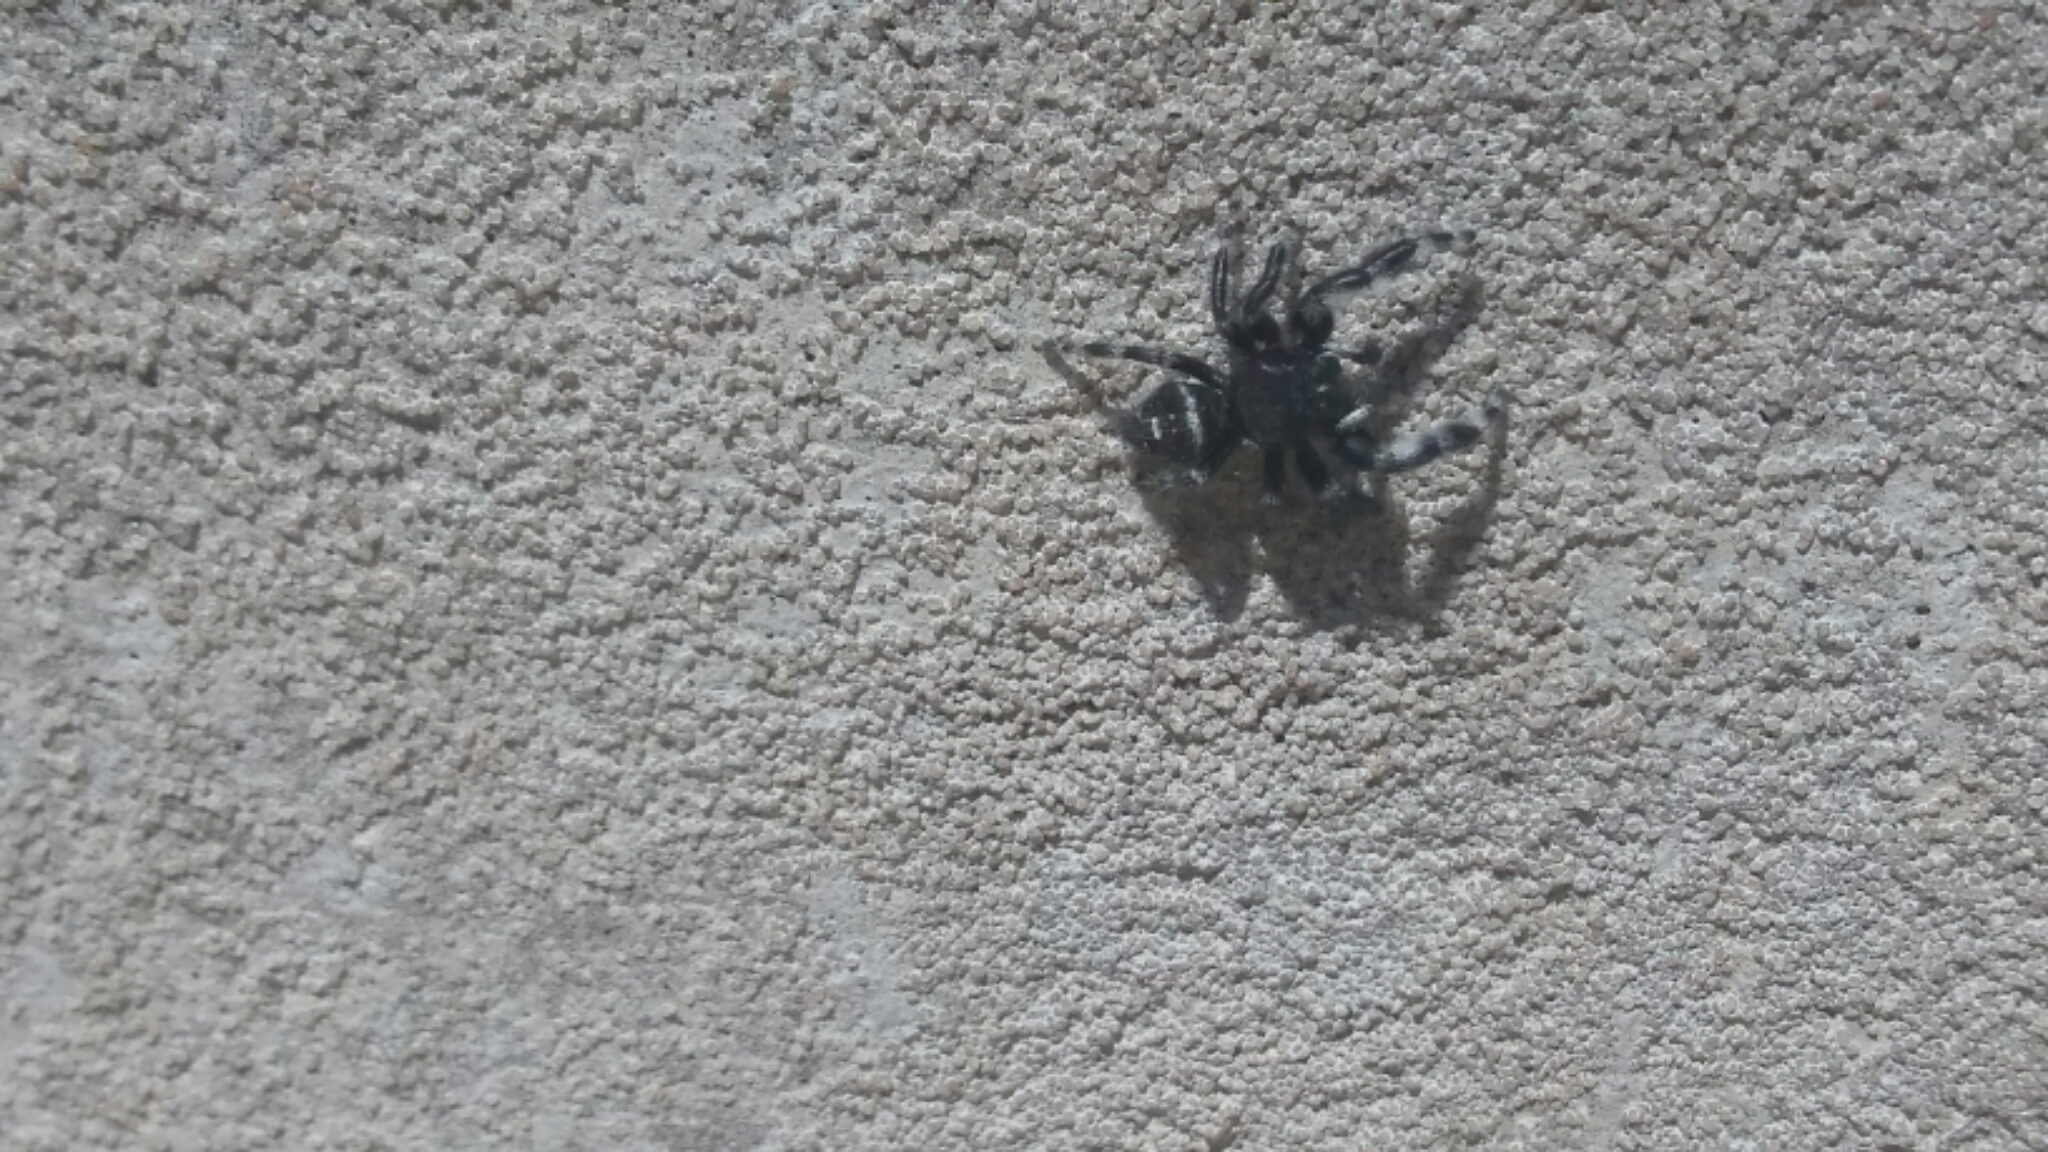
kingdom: Animalia
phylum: Arthropoda
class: Arachnida
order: Araneae
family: Salticidae
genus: Phidippus
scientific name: Phidippus audax
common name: Bold jumper
